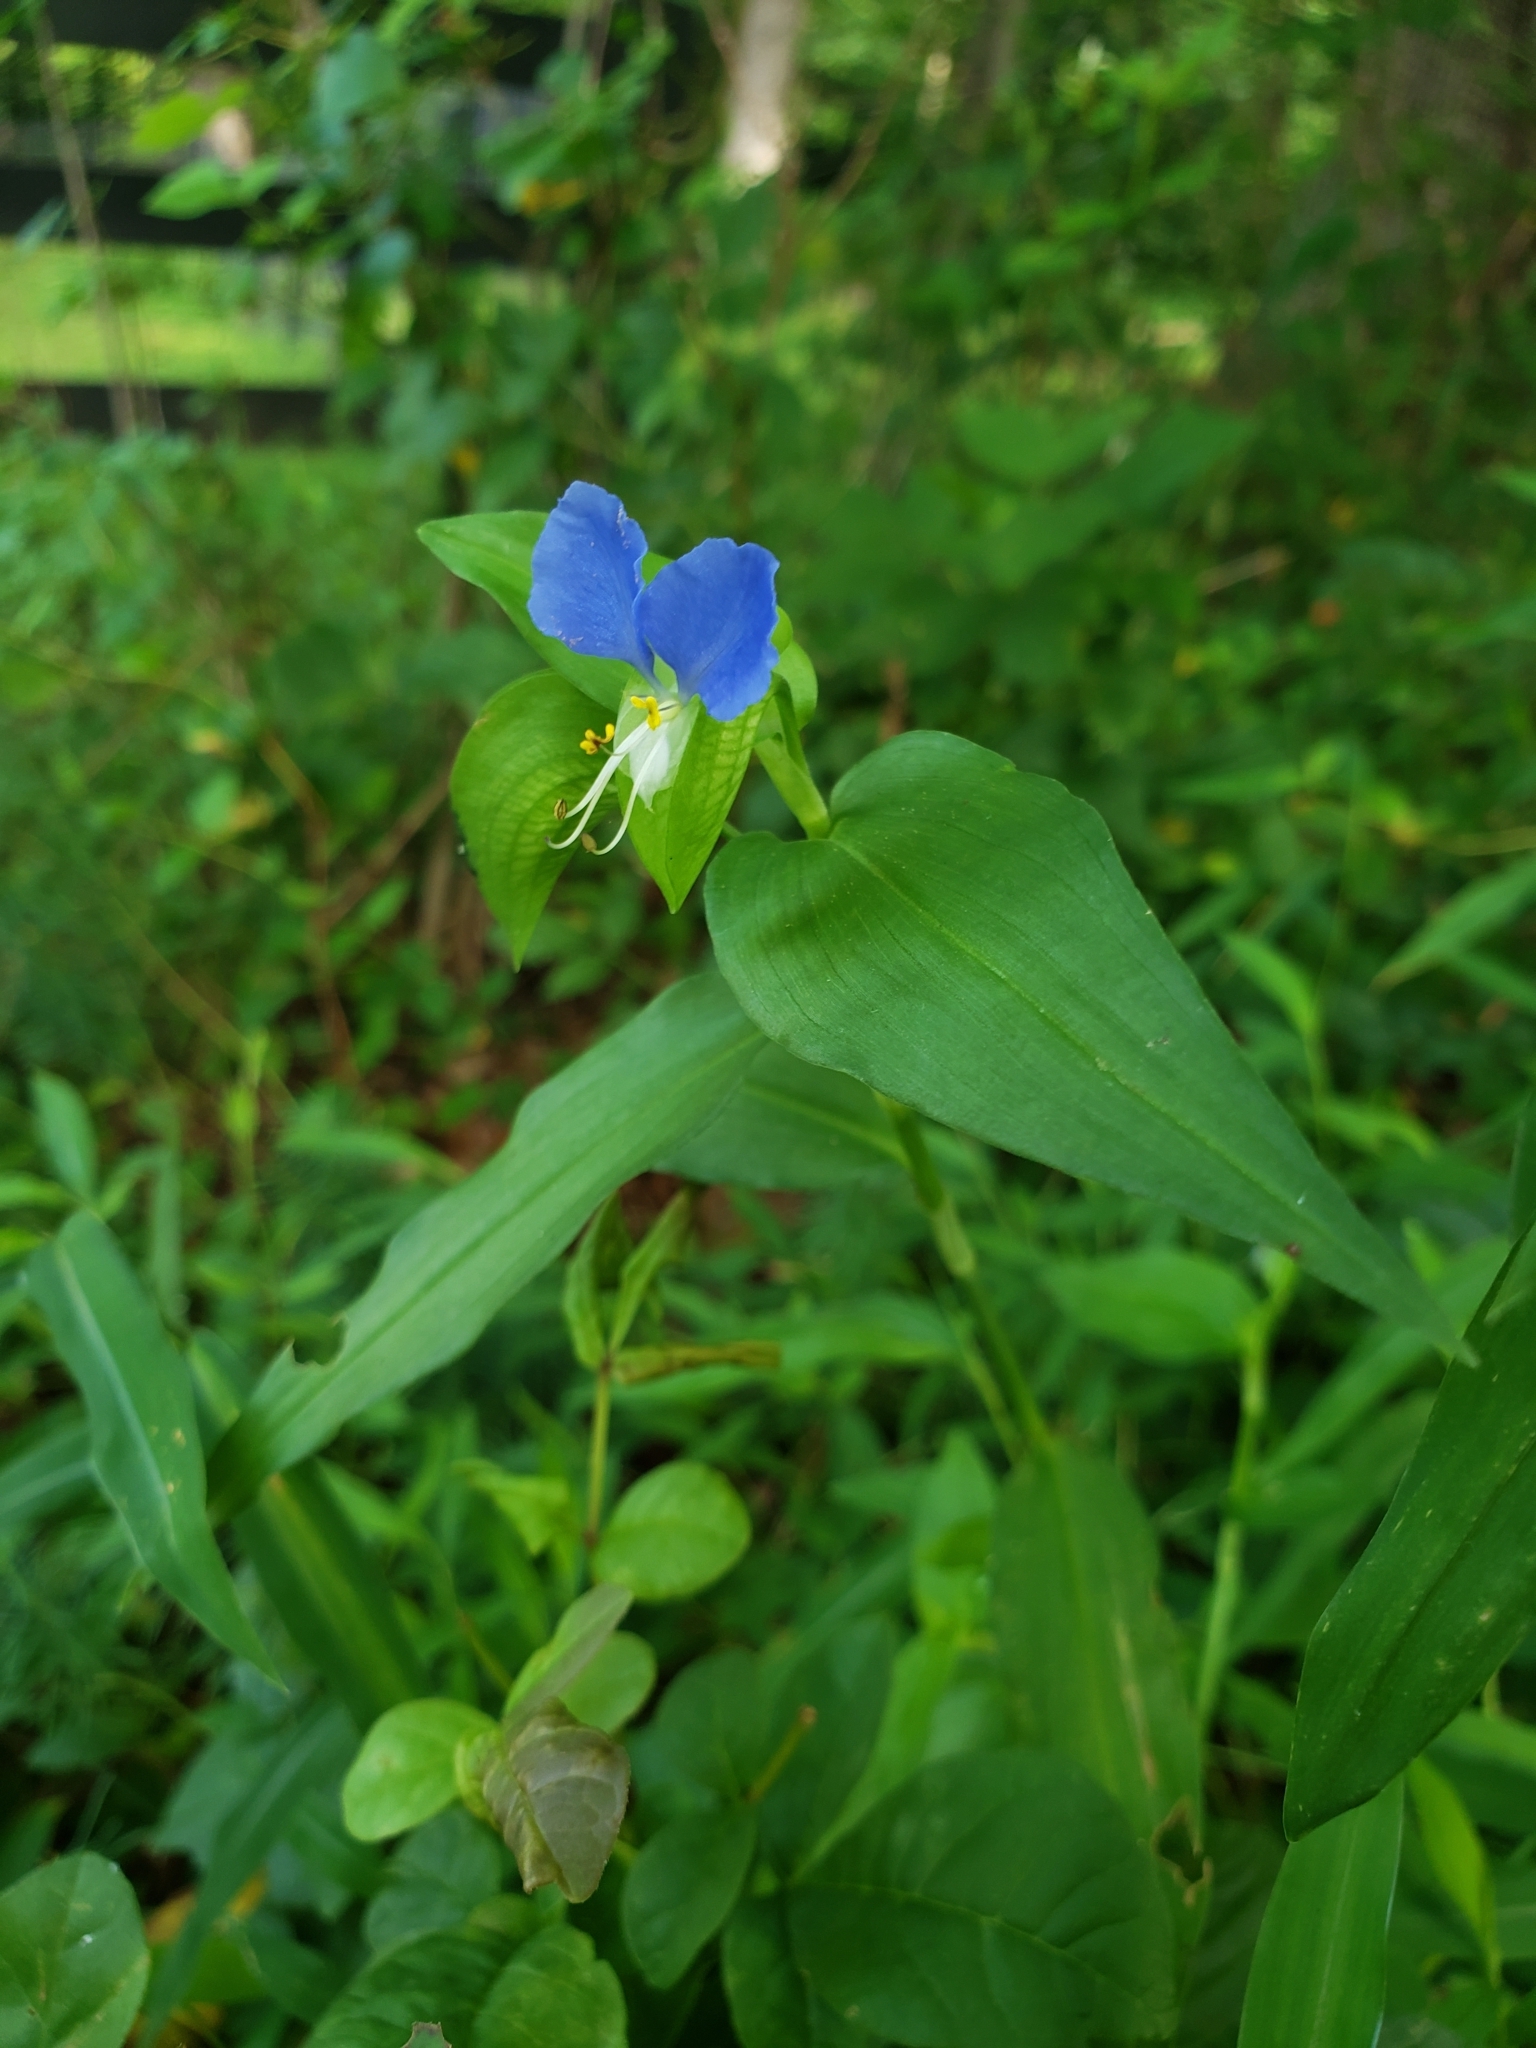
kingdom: Plantae
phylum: Tracheophyta
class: Liliopsida
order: Commelinales
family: Commelinaceae
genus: Commelina
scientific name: Commelina communis
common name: Asiatic dayflower
